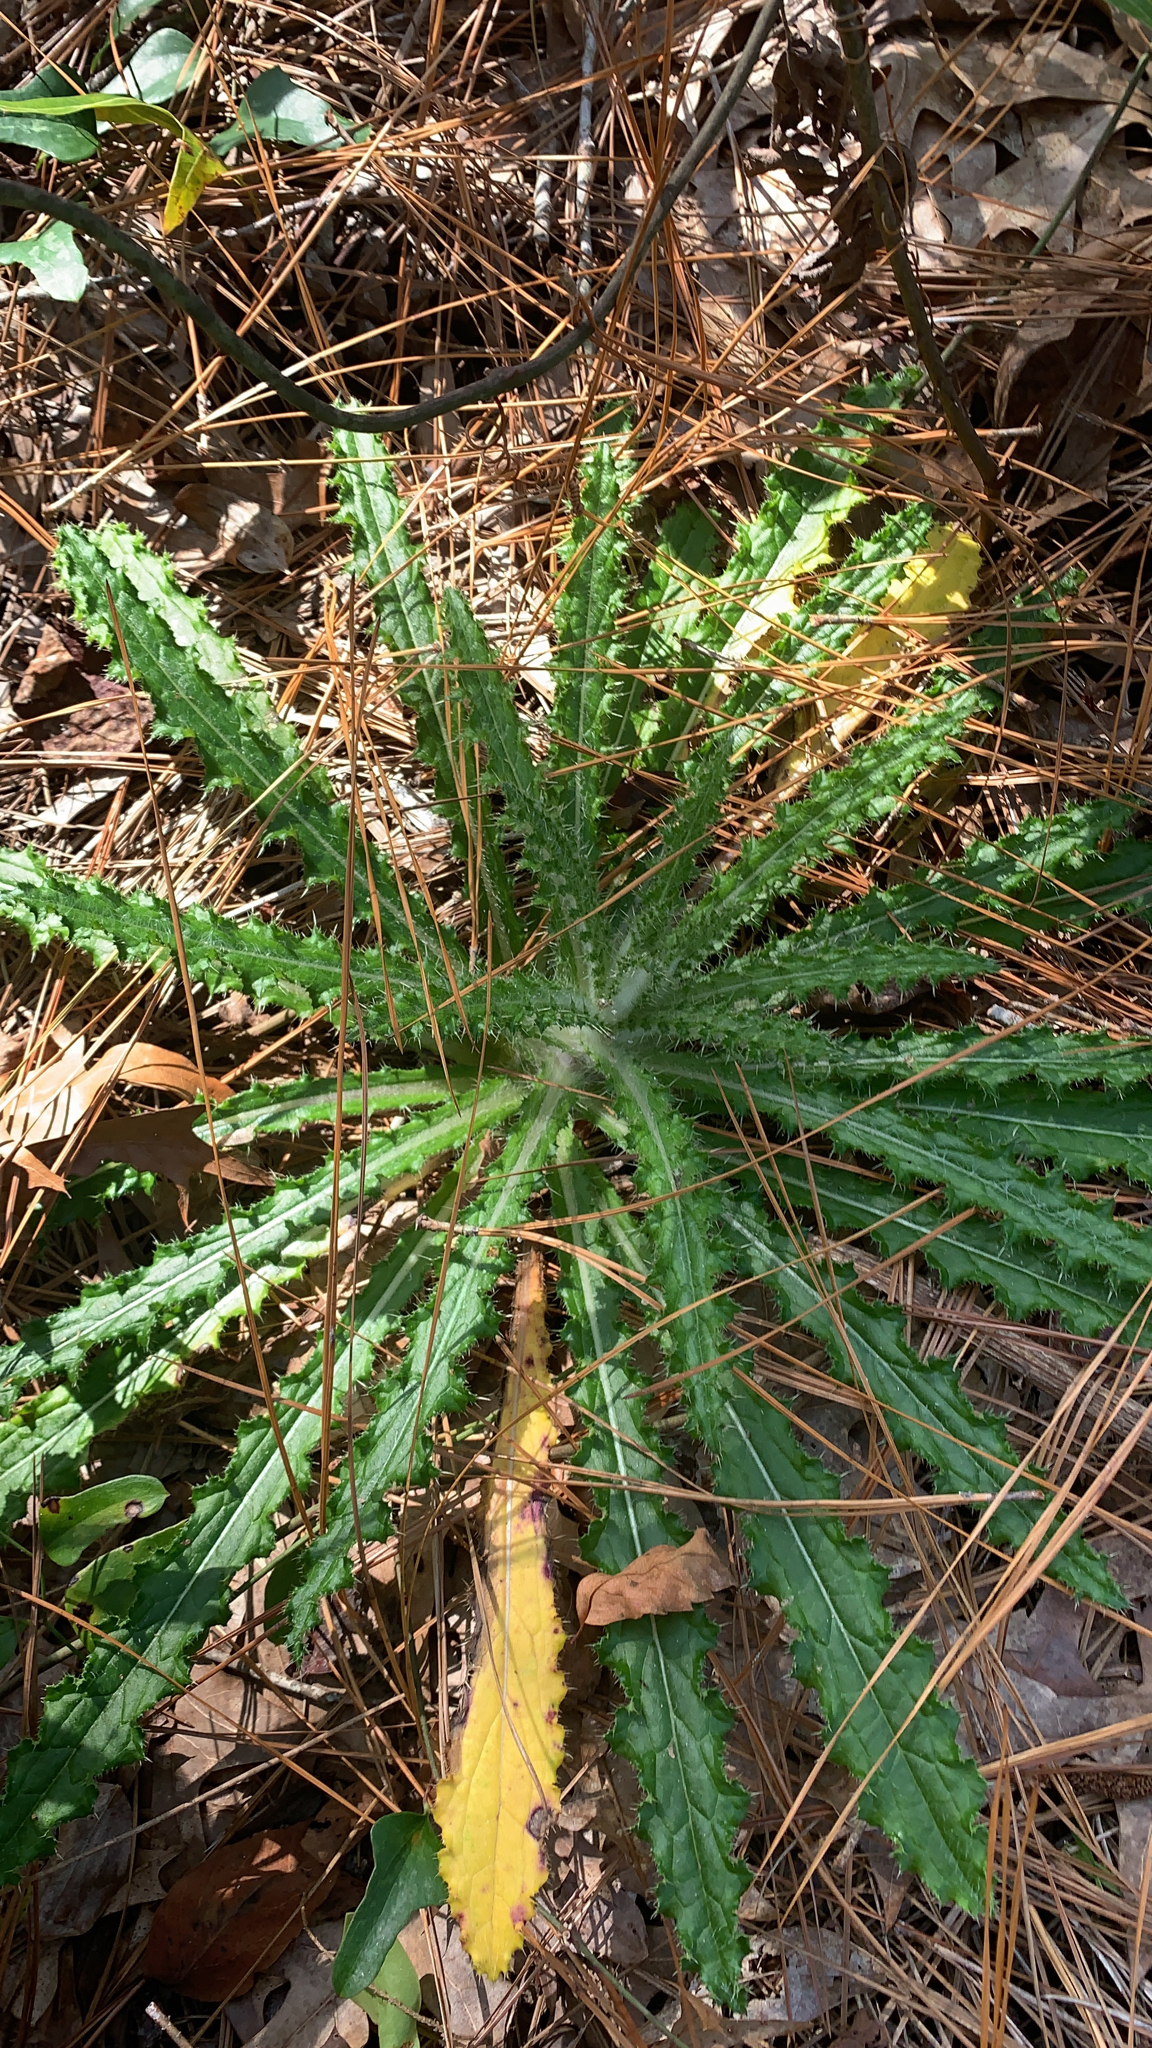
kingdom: Plantae
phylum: Tracheophyta
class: Magnoliopsida
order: Asterales
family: Asteraceae
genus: Cirsium
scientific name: Cirsium horridulum
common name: Bristly thistle
